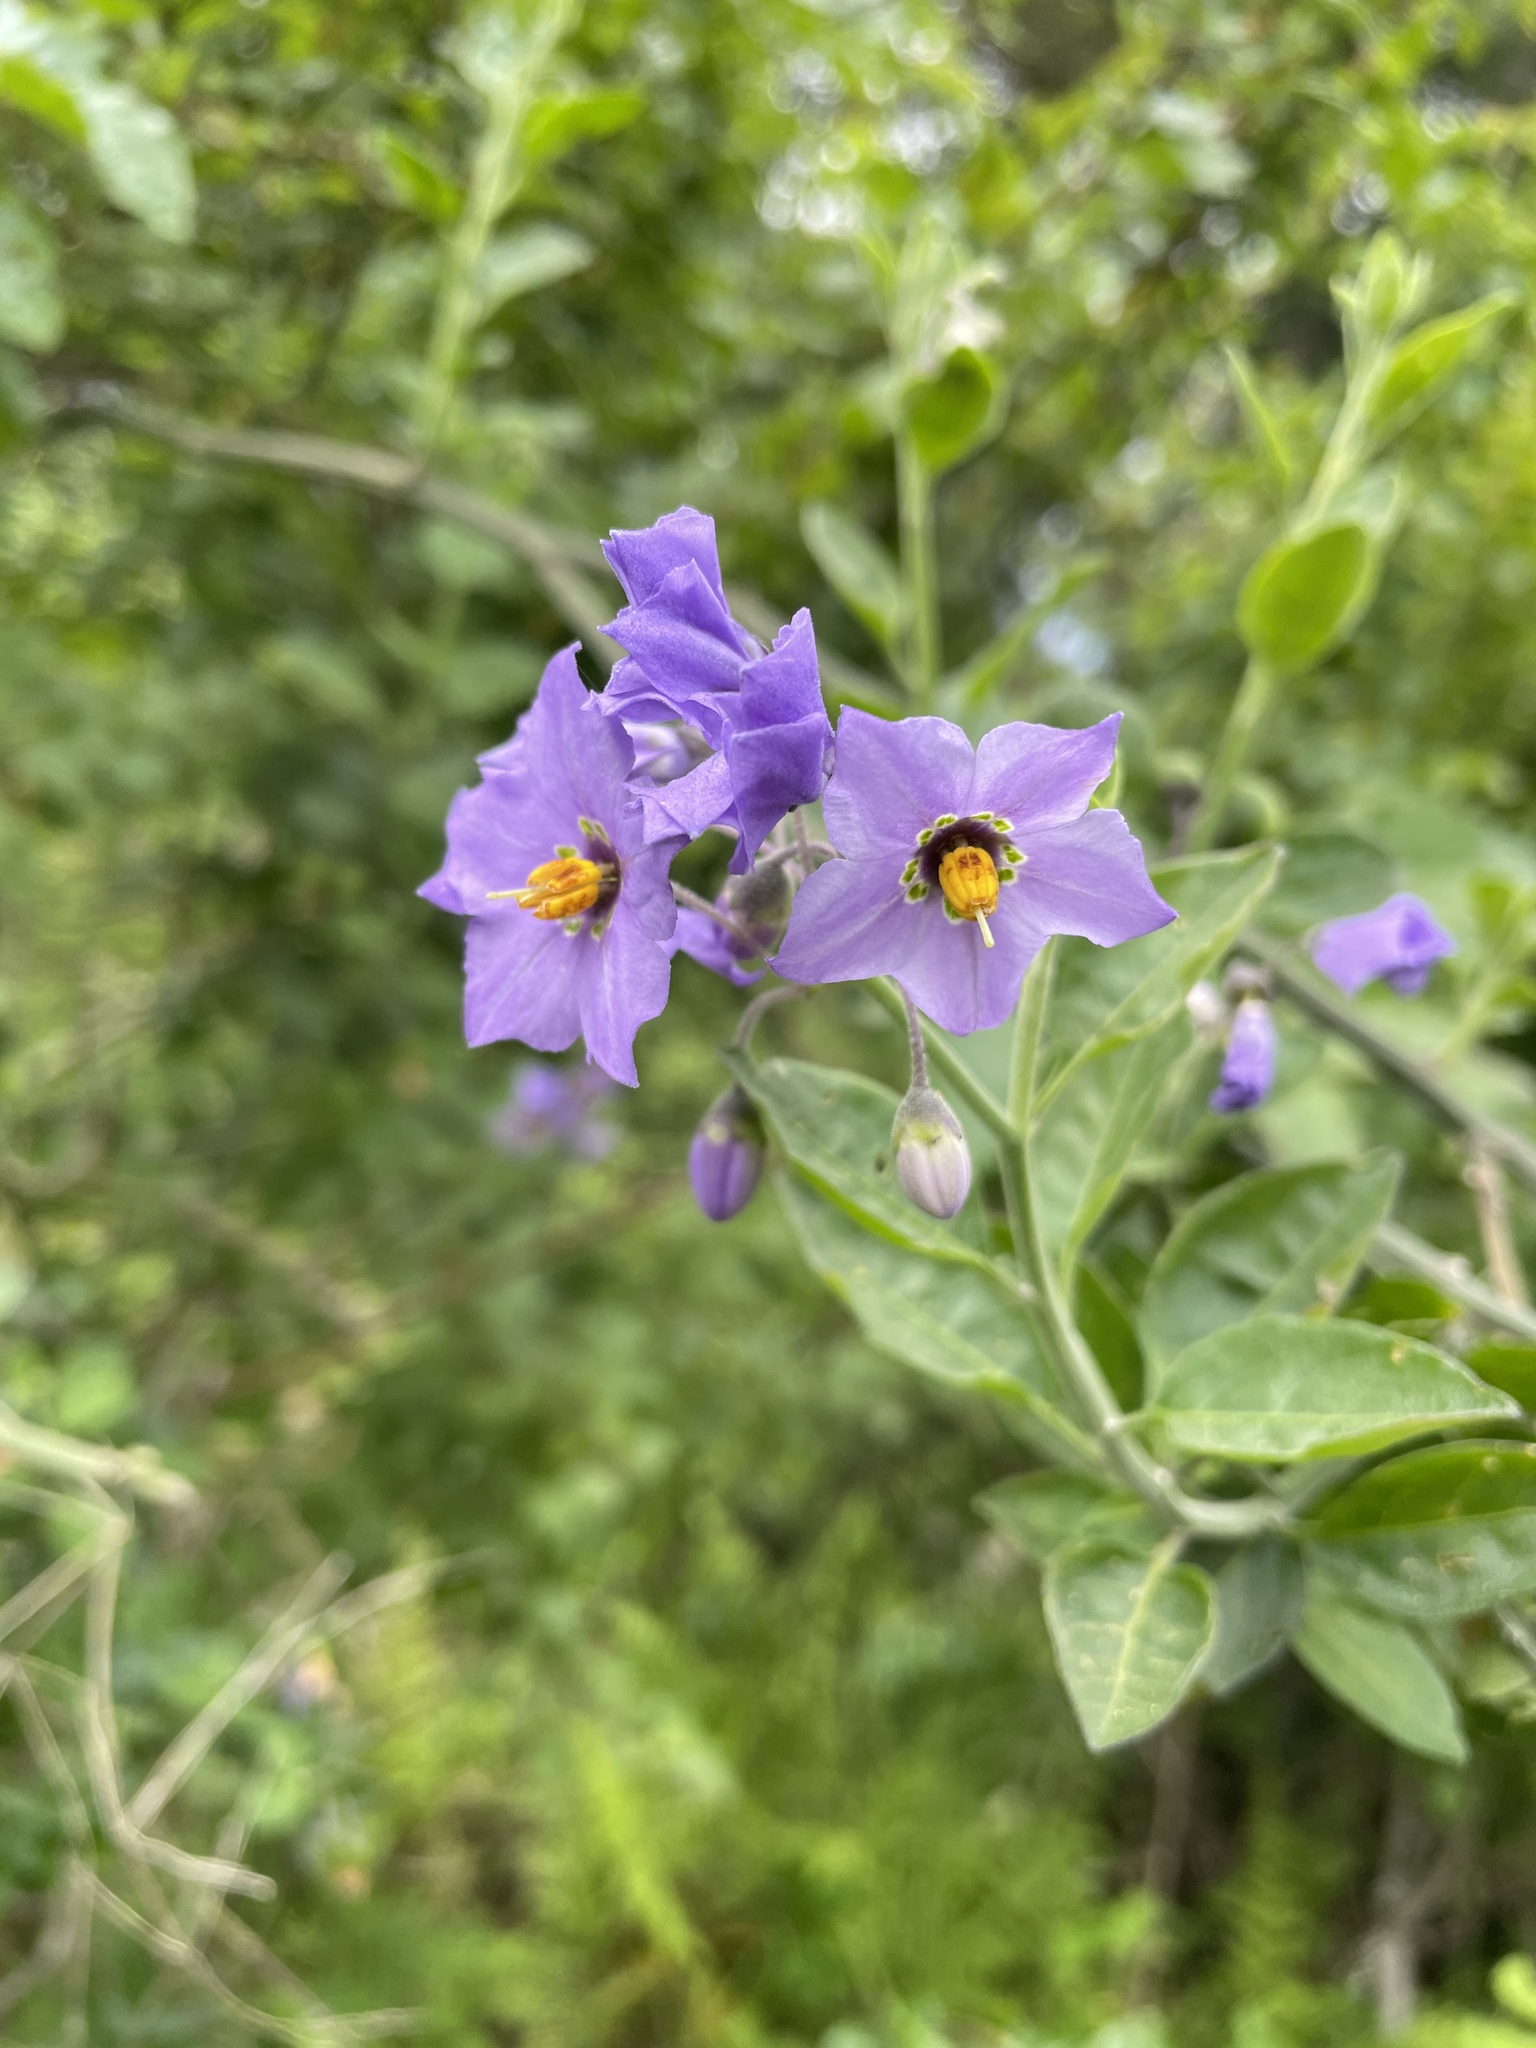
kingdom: Plantae
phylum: Tracheophyta
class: Magnoliopsida
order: Solanales
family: Solanaceae
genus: Solanum
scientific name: Solanum umbelliferum
